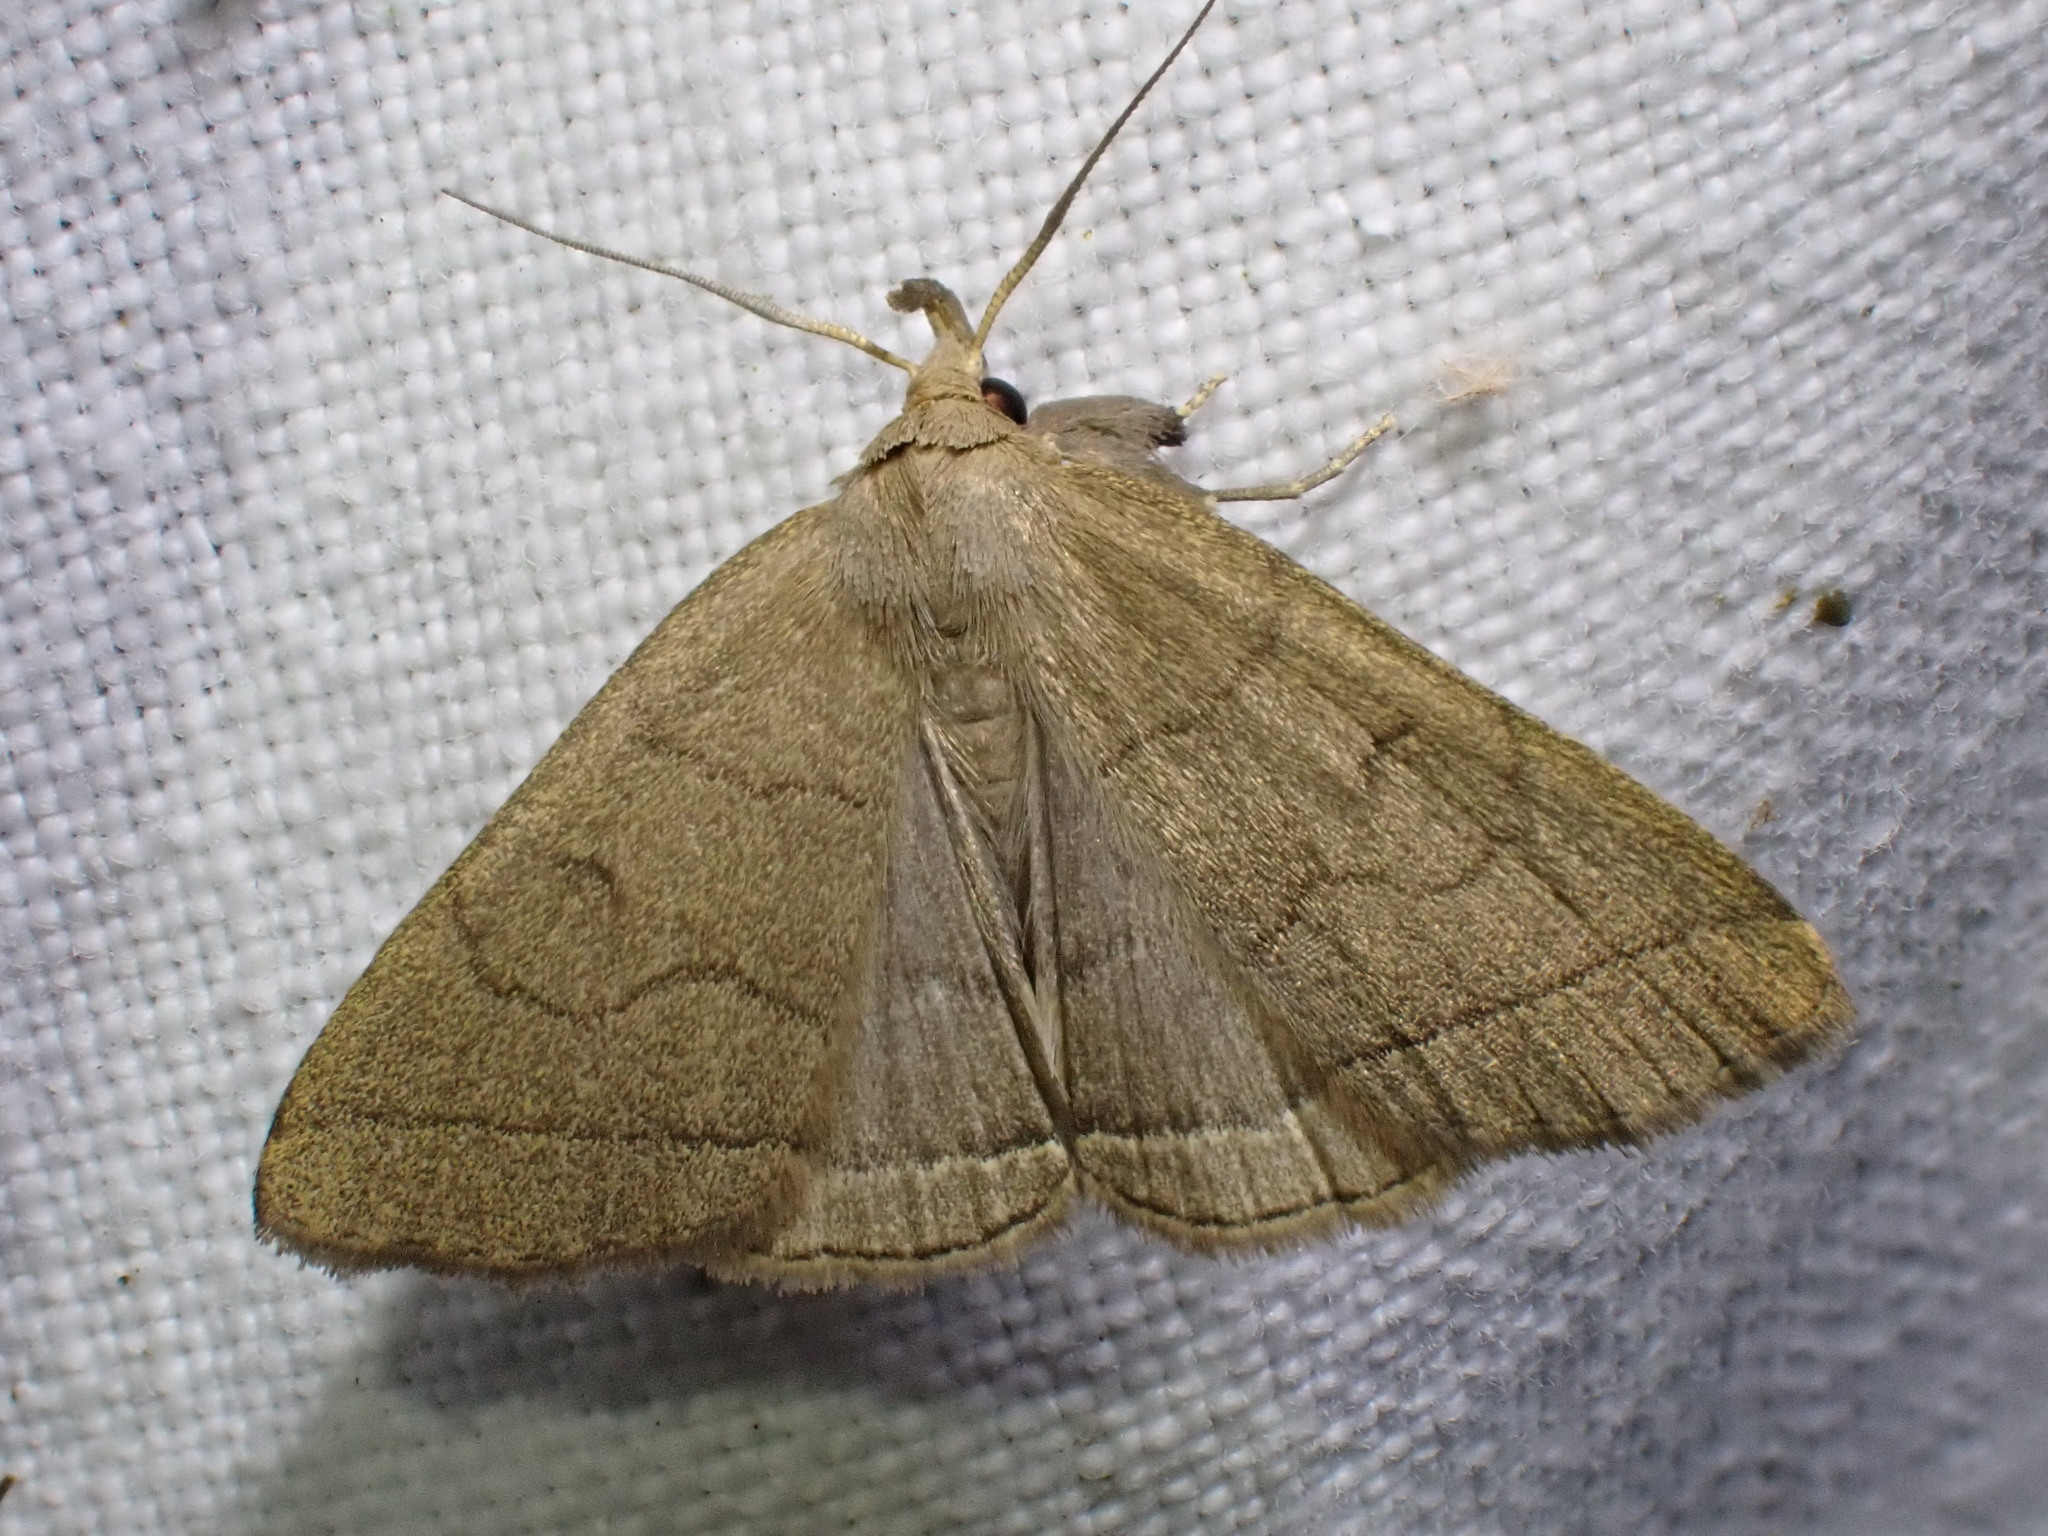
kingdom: Animalia
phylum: Arthropoda
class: Insecta
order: Lepidoptera
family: Erebidae
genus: Herminia
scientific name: Herminia tarsipennalis
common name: Fan-foot
